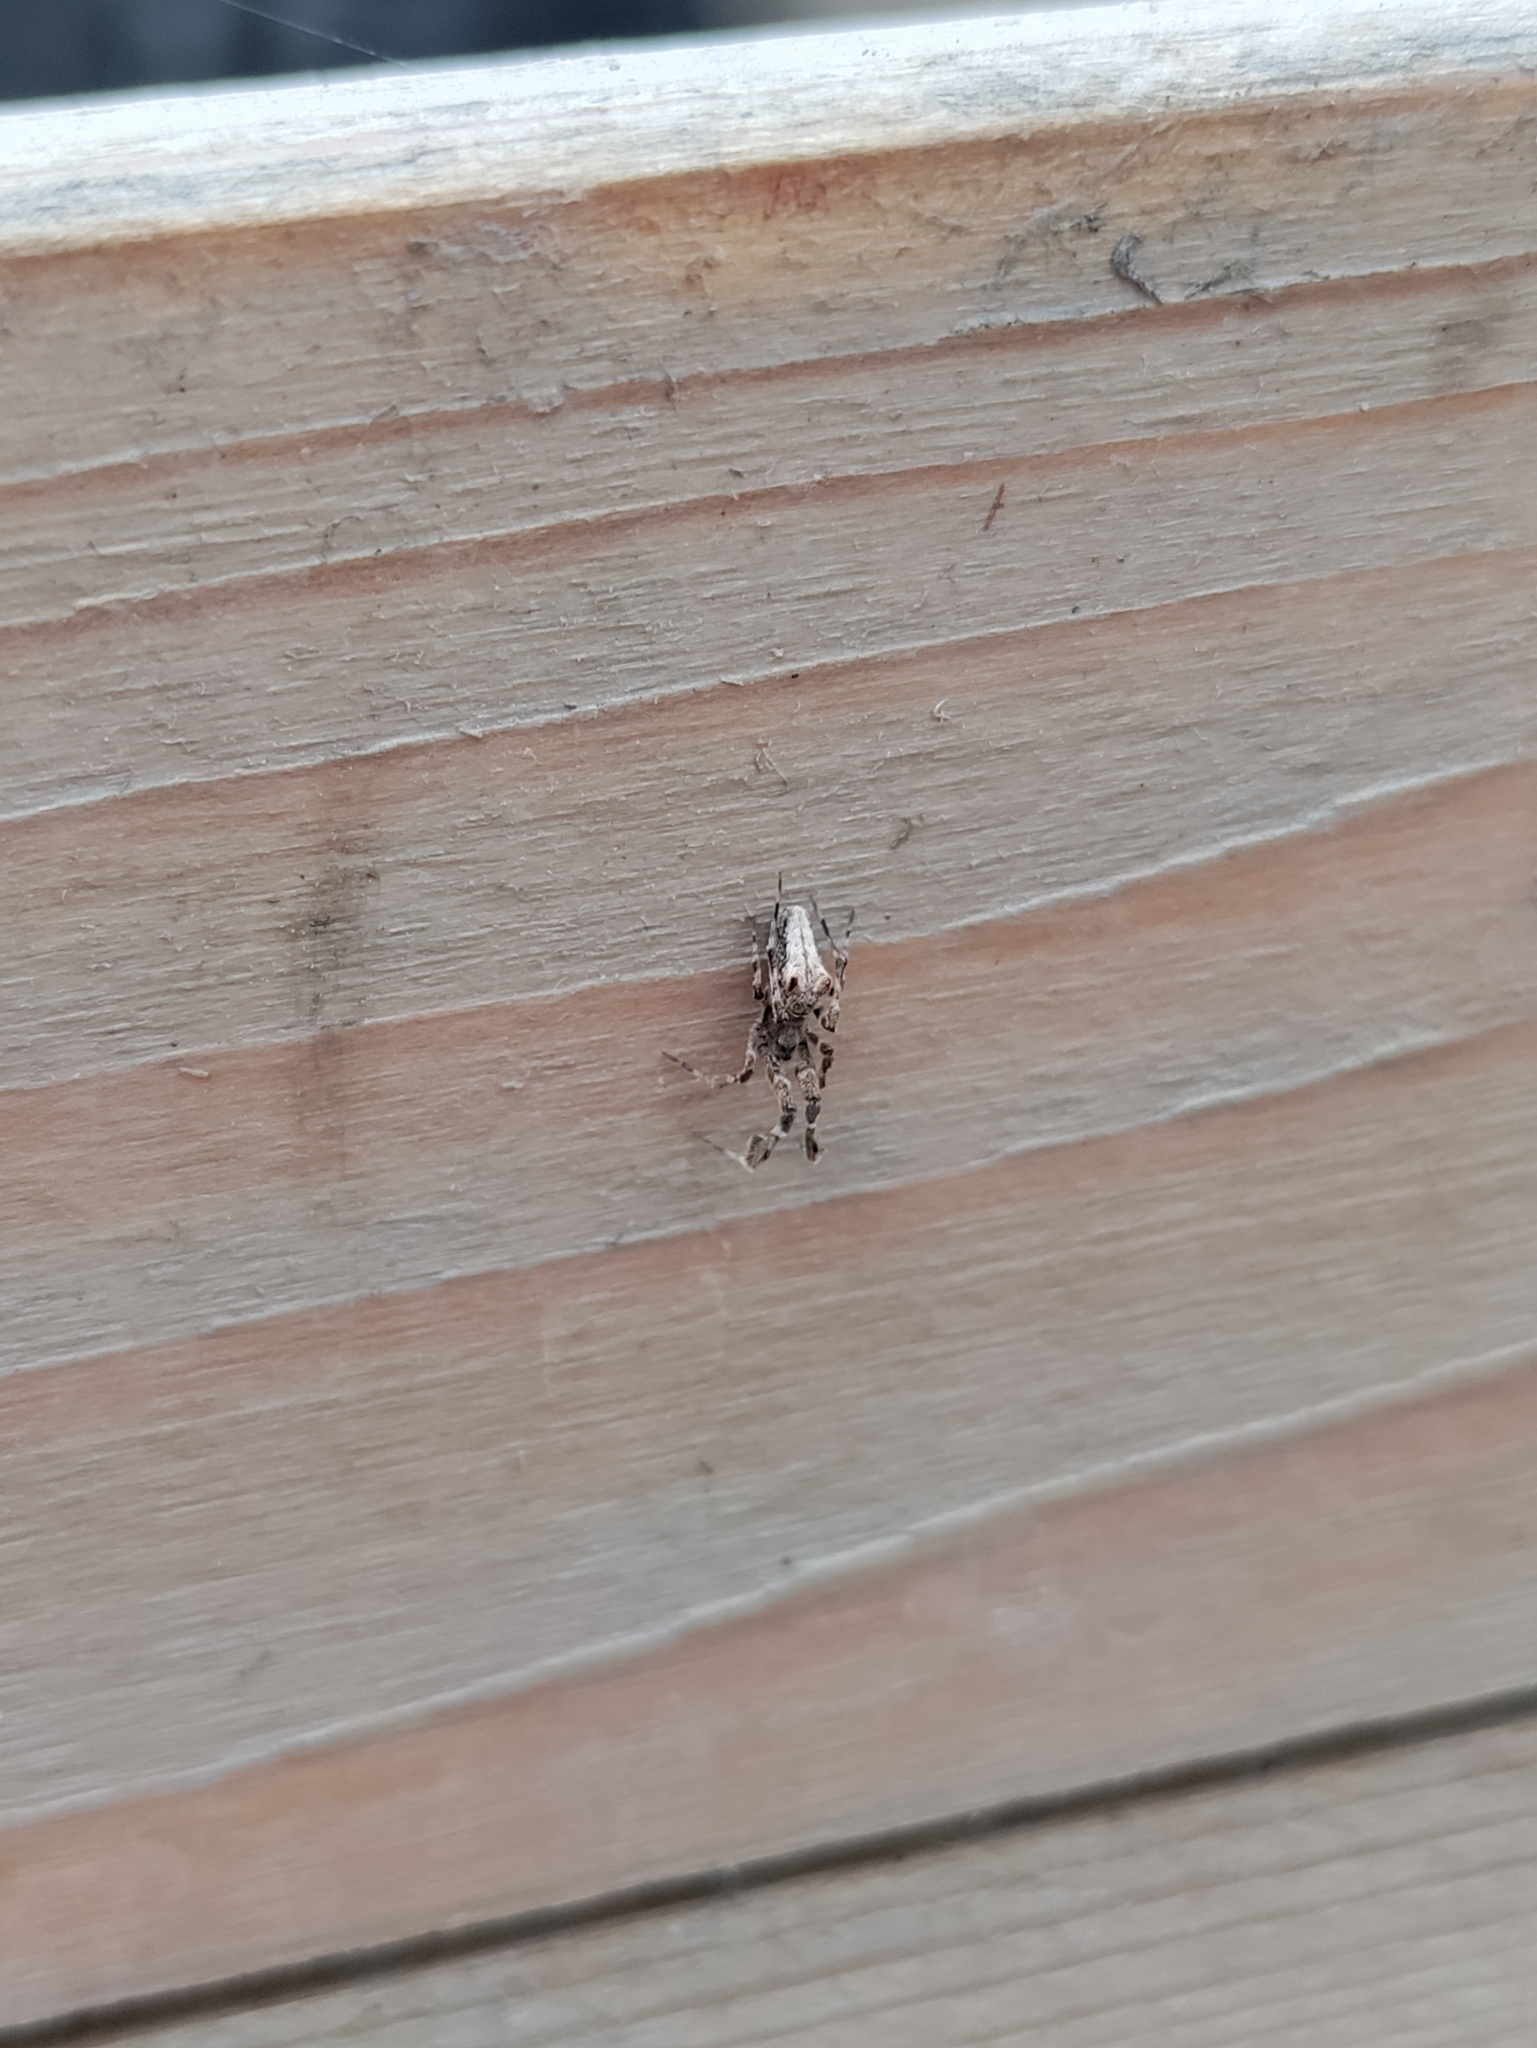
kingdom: Animalia
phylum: Arthropoda
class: Arachnida
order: Araneae
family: Uloboridae
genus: Uloborus
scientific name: Uloborus plumipes
